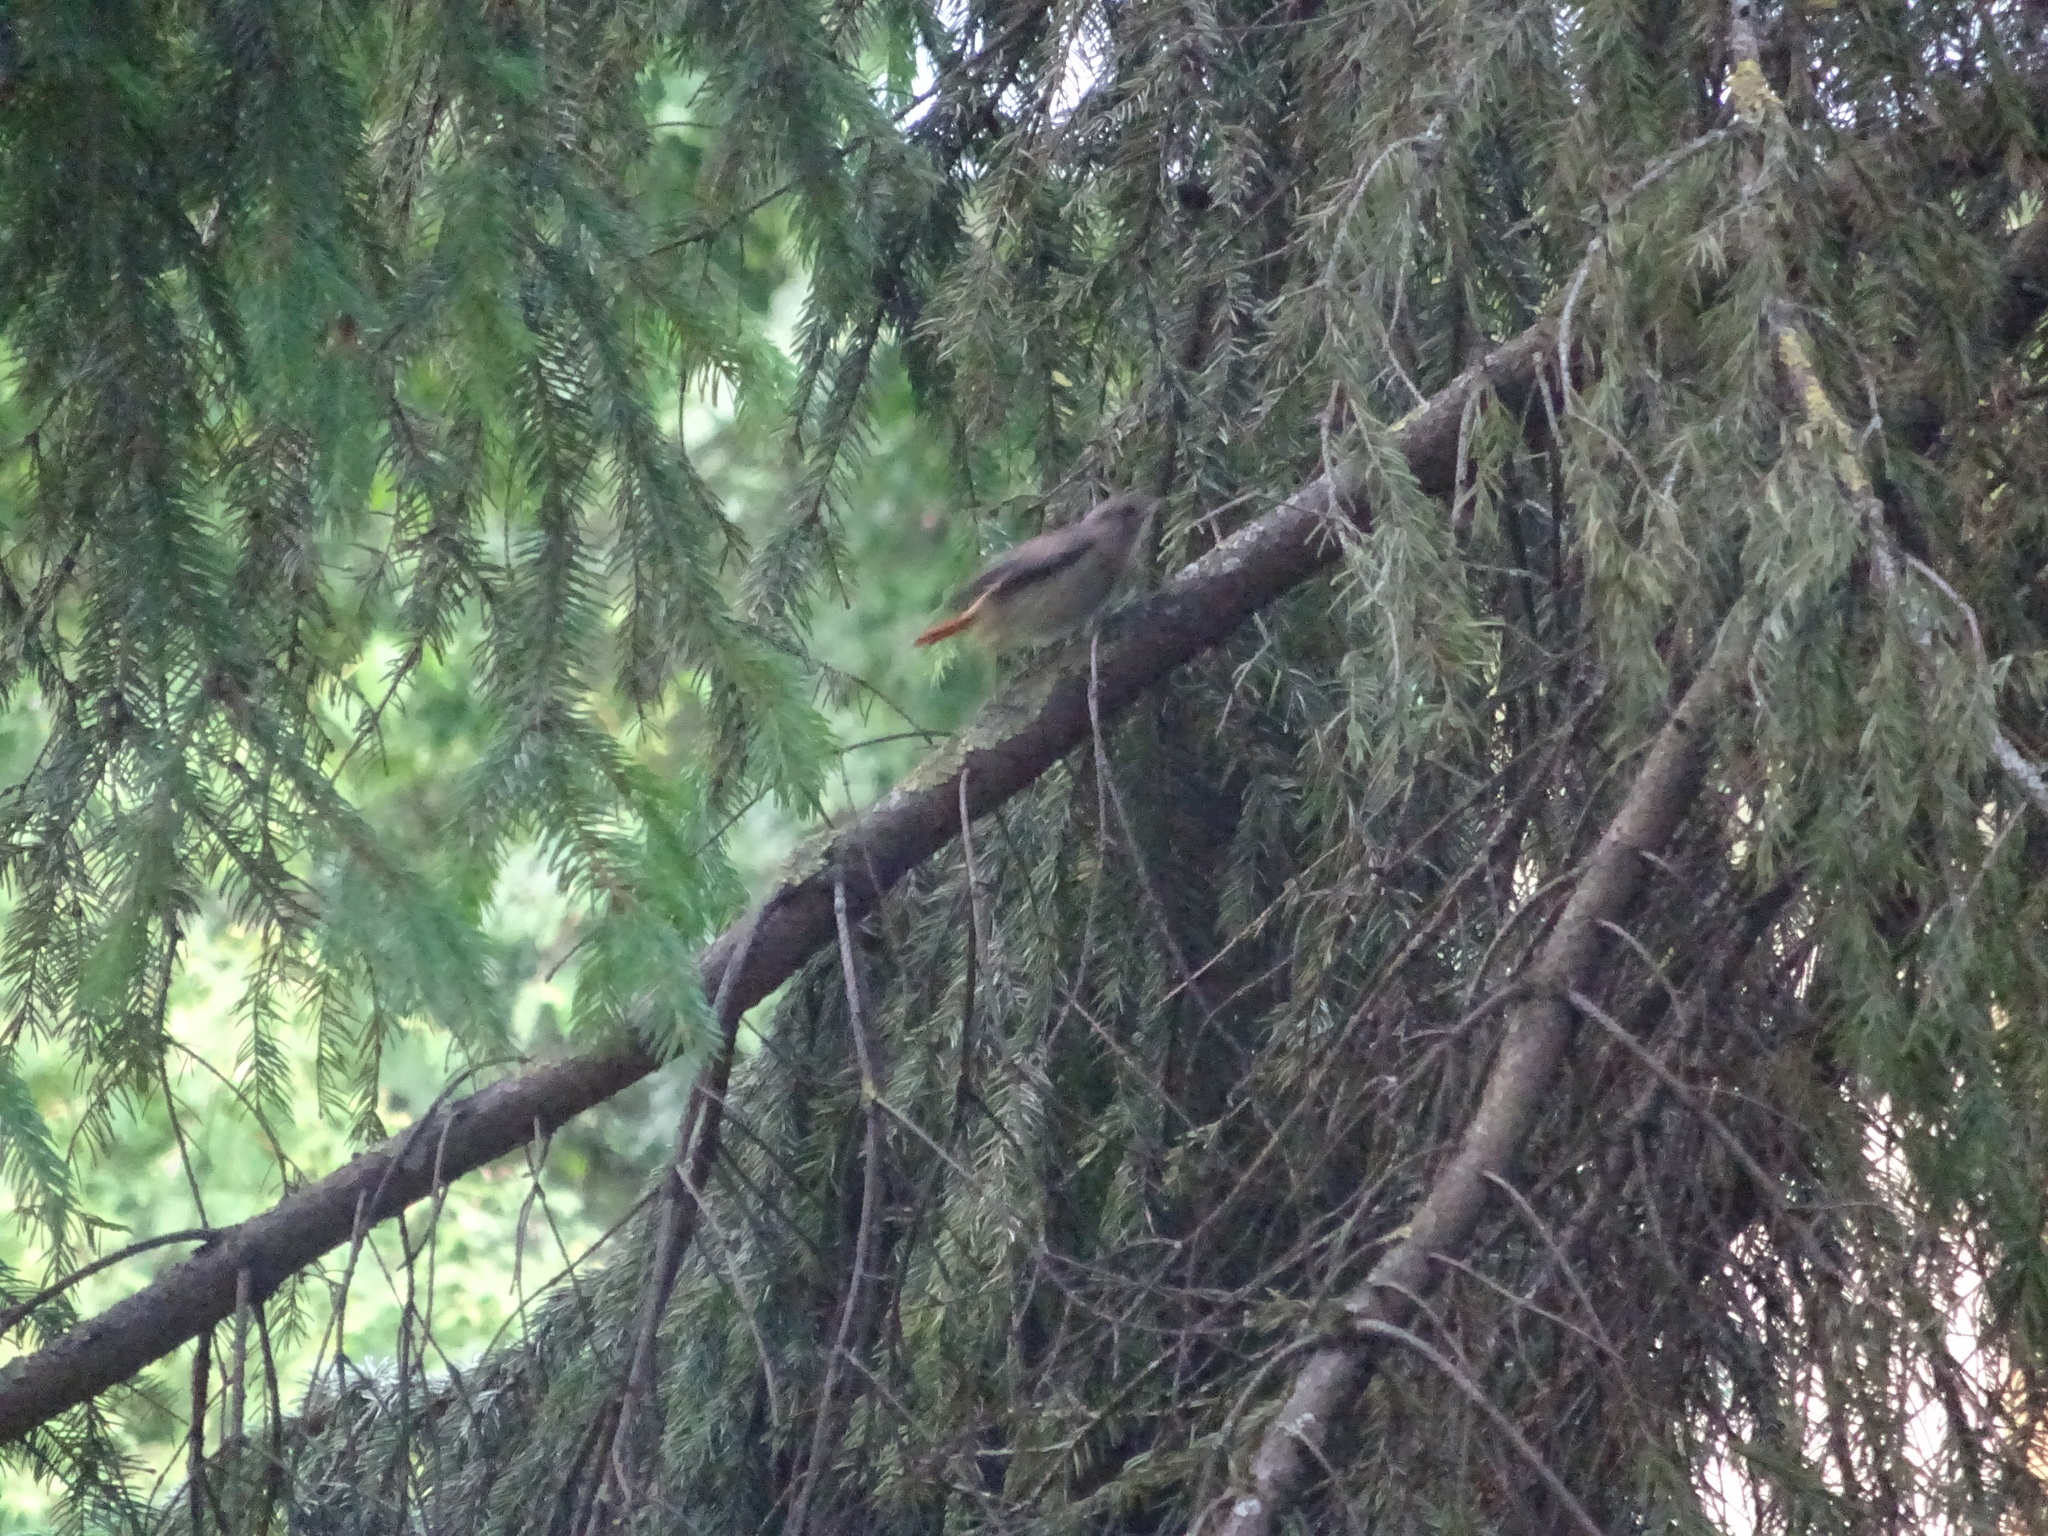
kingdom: Animalia
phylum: Chordata
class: Aves
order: Passeriformes
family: Muscicapidae
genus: Phoenicurus
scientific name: Phoenicurus ochruros
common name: Black redstart
